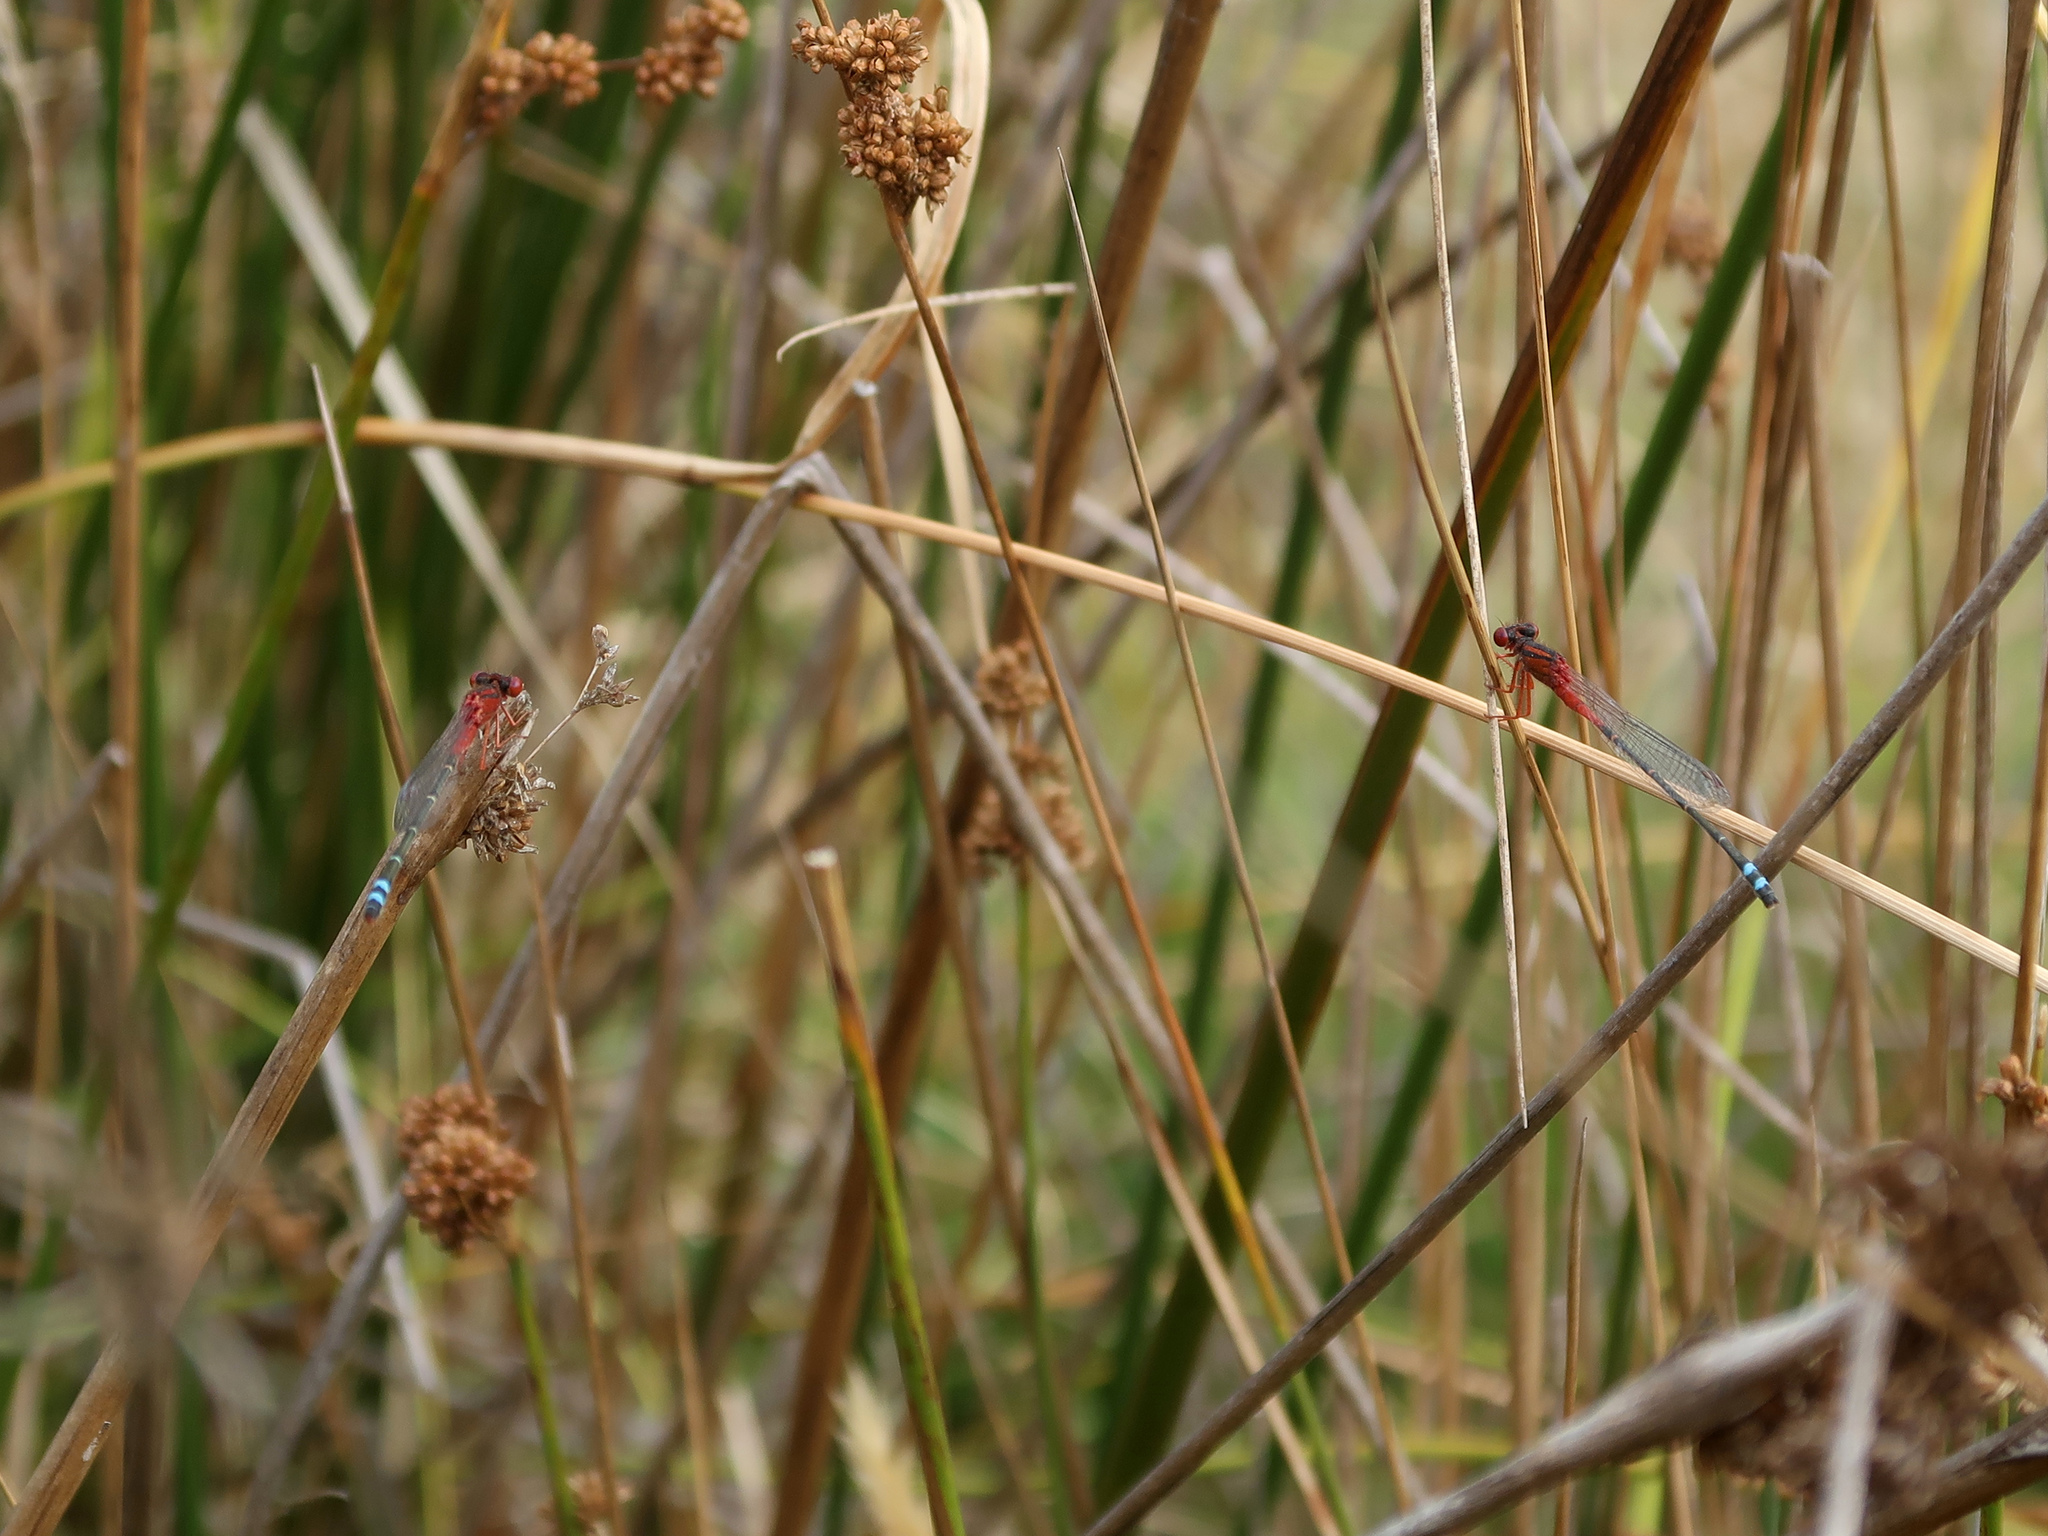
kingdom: Animalia
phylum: Arthropoda
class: Insecta
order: Odonata
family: Coenagrionidae
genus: Xanthagrion
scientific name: Xanthagrion erythroneurum
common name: Red and blue damsel
